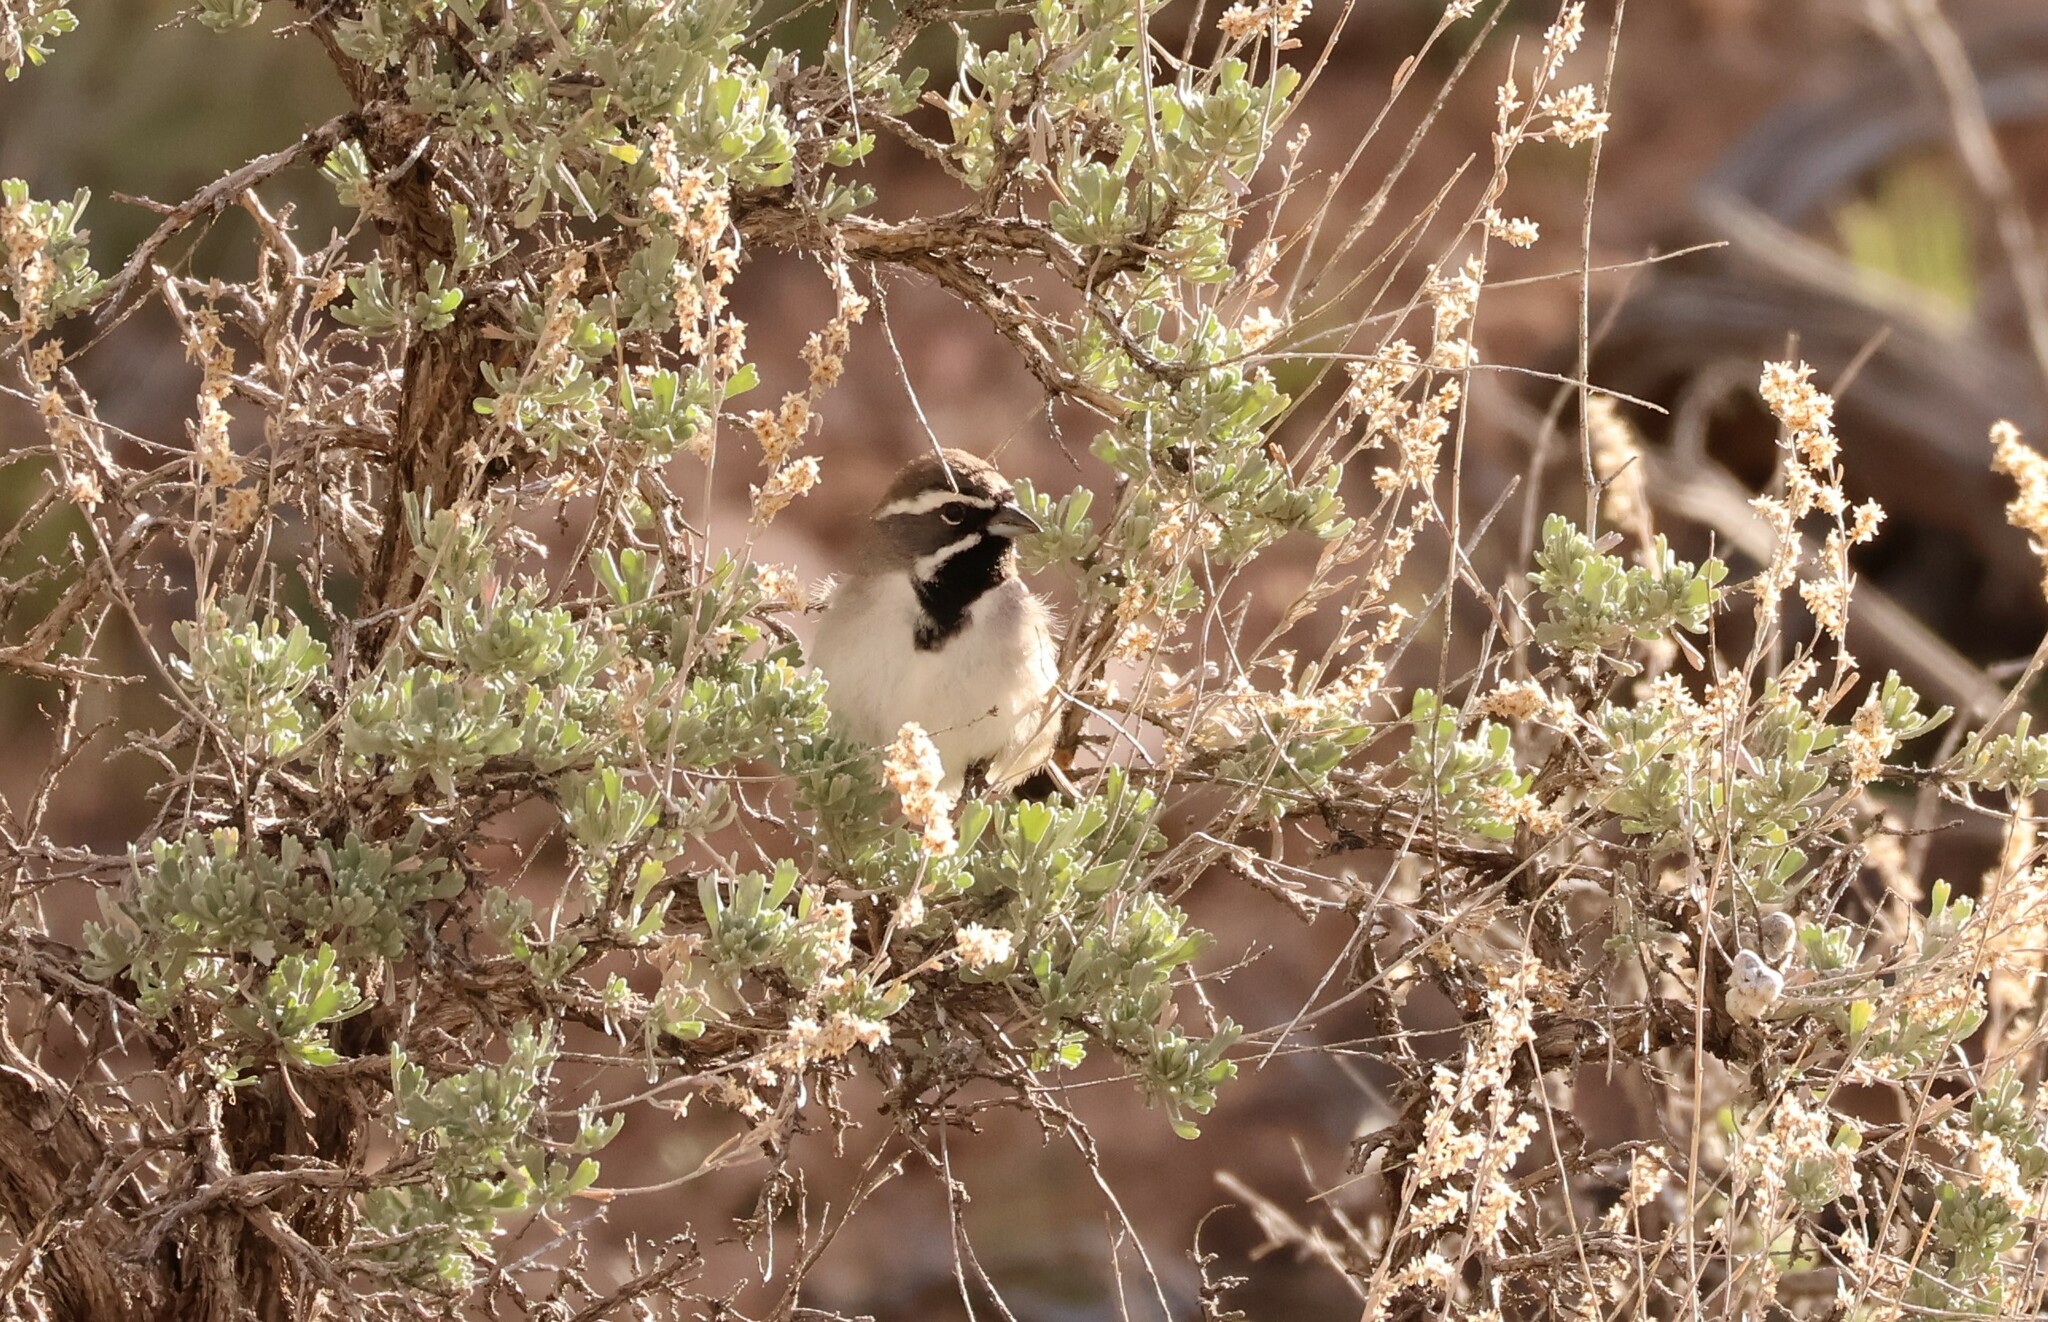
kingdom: Animalia
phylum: Chordata
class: Aves
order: Passeriformes
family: Passerellidae
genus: Amphispiza
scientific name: Amphispiza bilineata
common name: Black-throated sparrow
